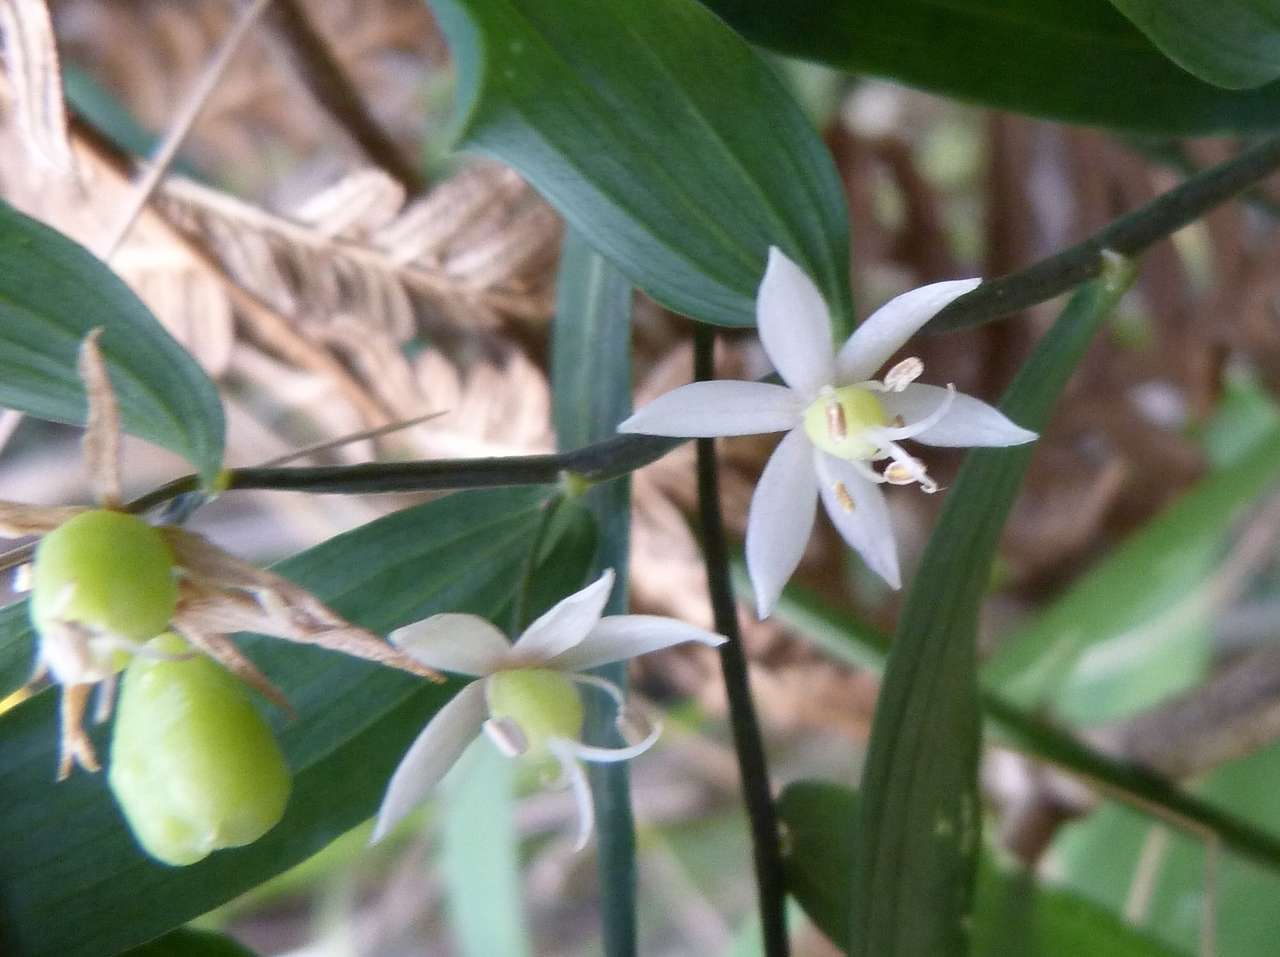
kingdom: Plantae
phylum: Tracheophyta
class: Liliopsida
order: Liliales
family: Alstroemeriaceae
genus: Drymophila
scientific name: Drymophila cyanocarpa
